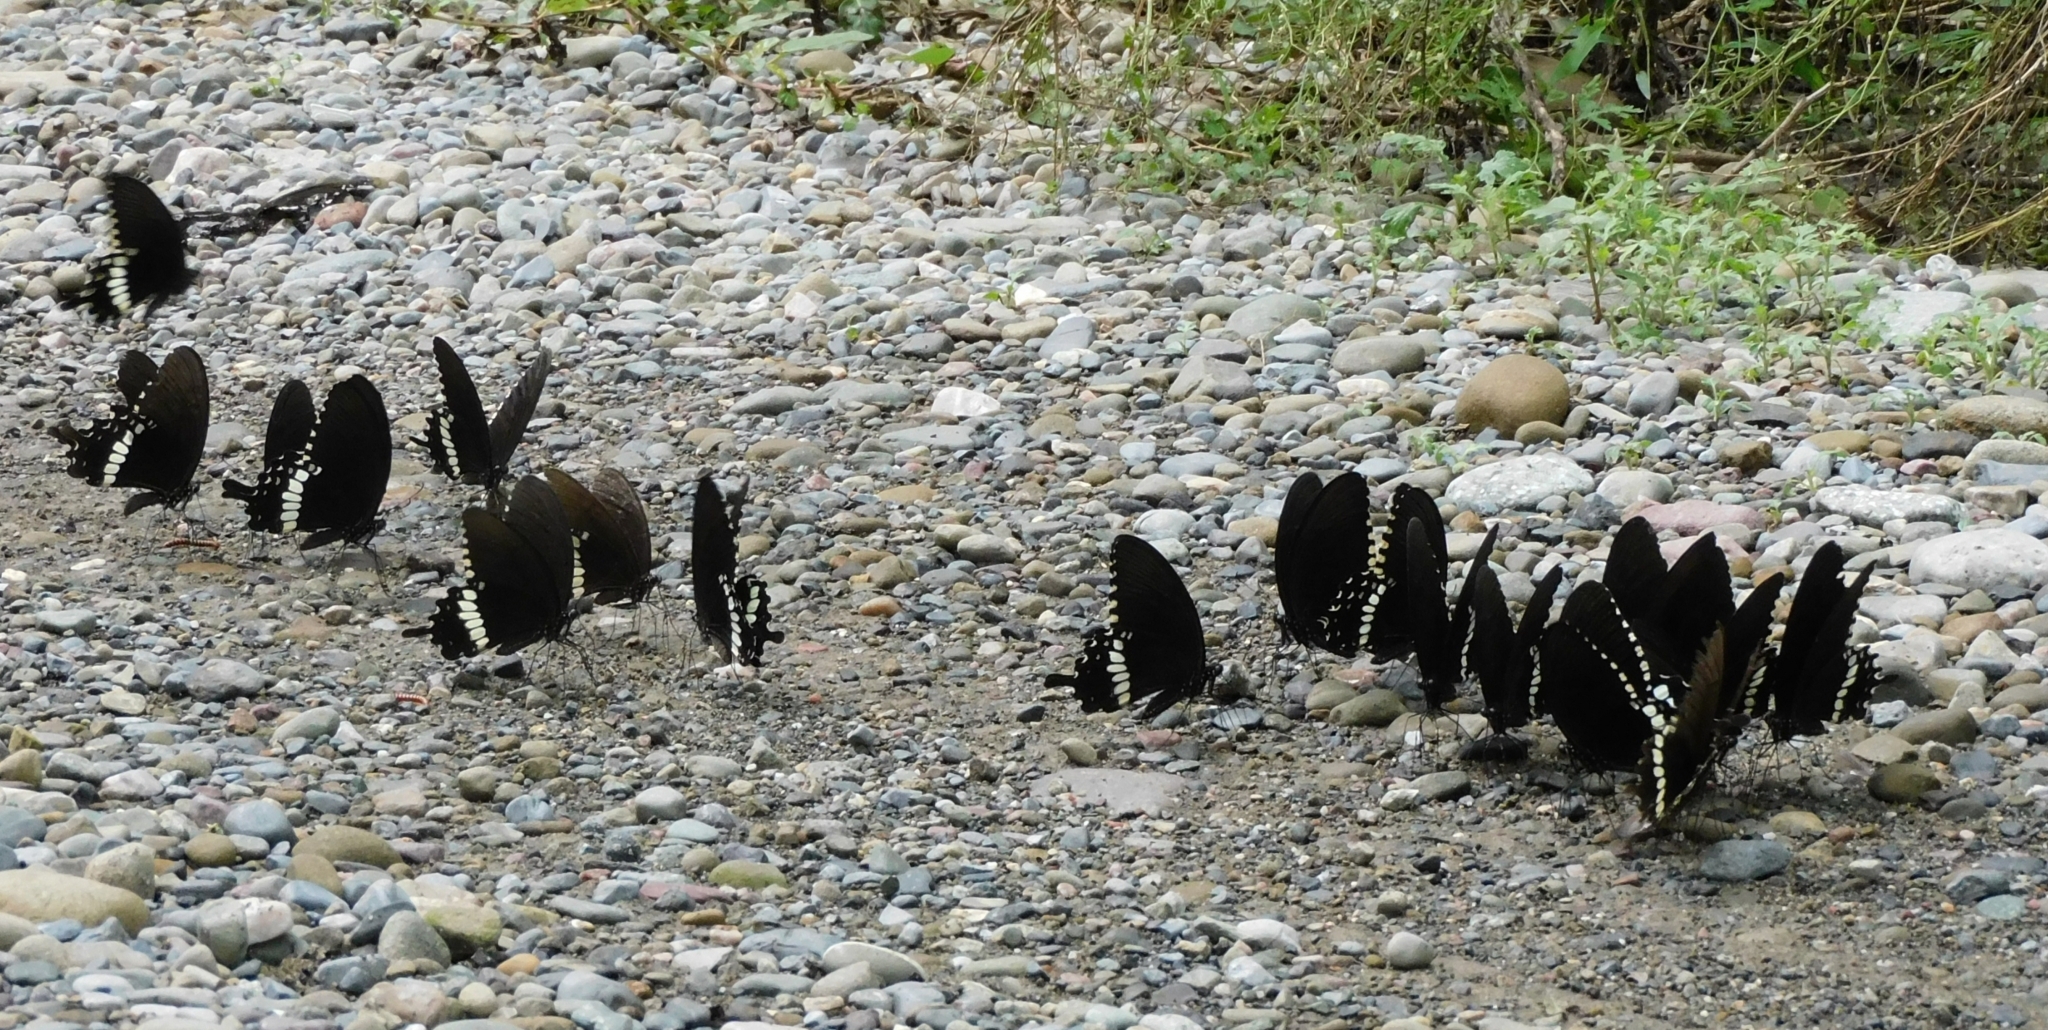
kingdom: Animalia
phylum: Arthropoda
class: Insecta
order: Lepidoptera
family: Papilionidae
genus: Papilio
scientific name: Papilio polytes
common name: Common mormon
